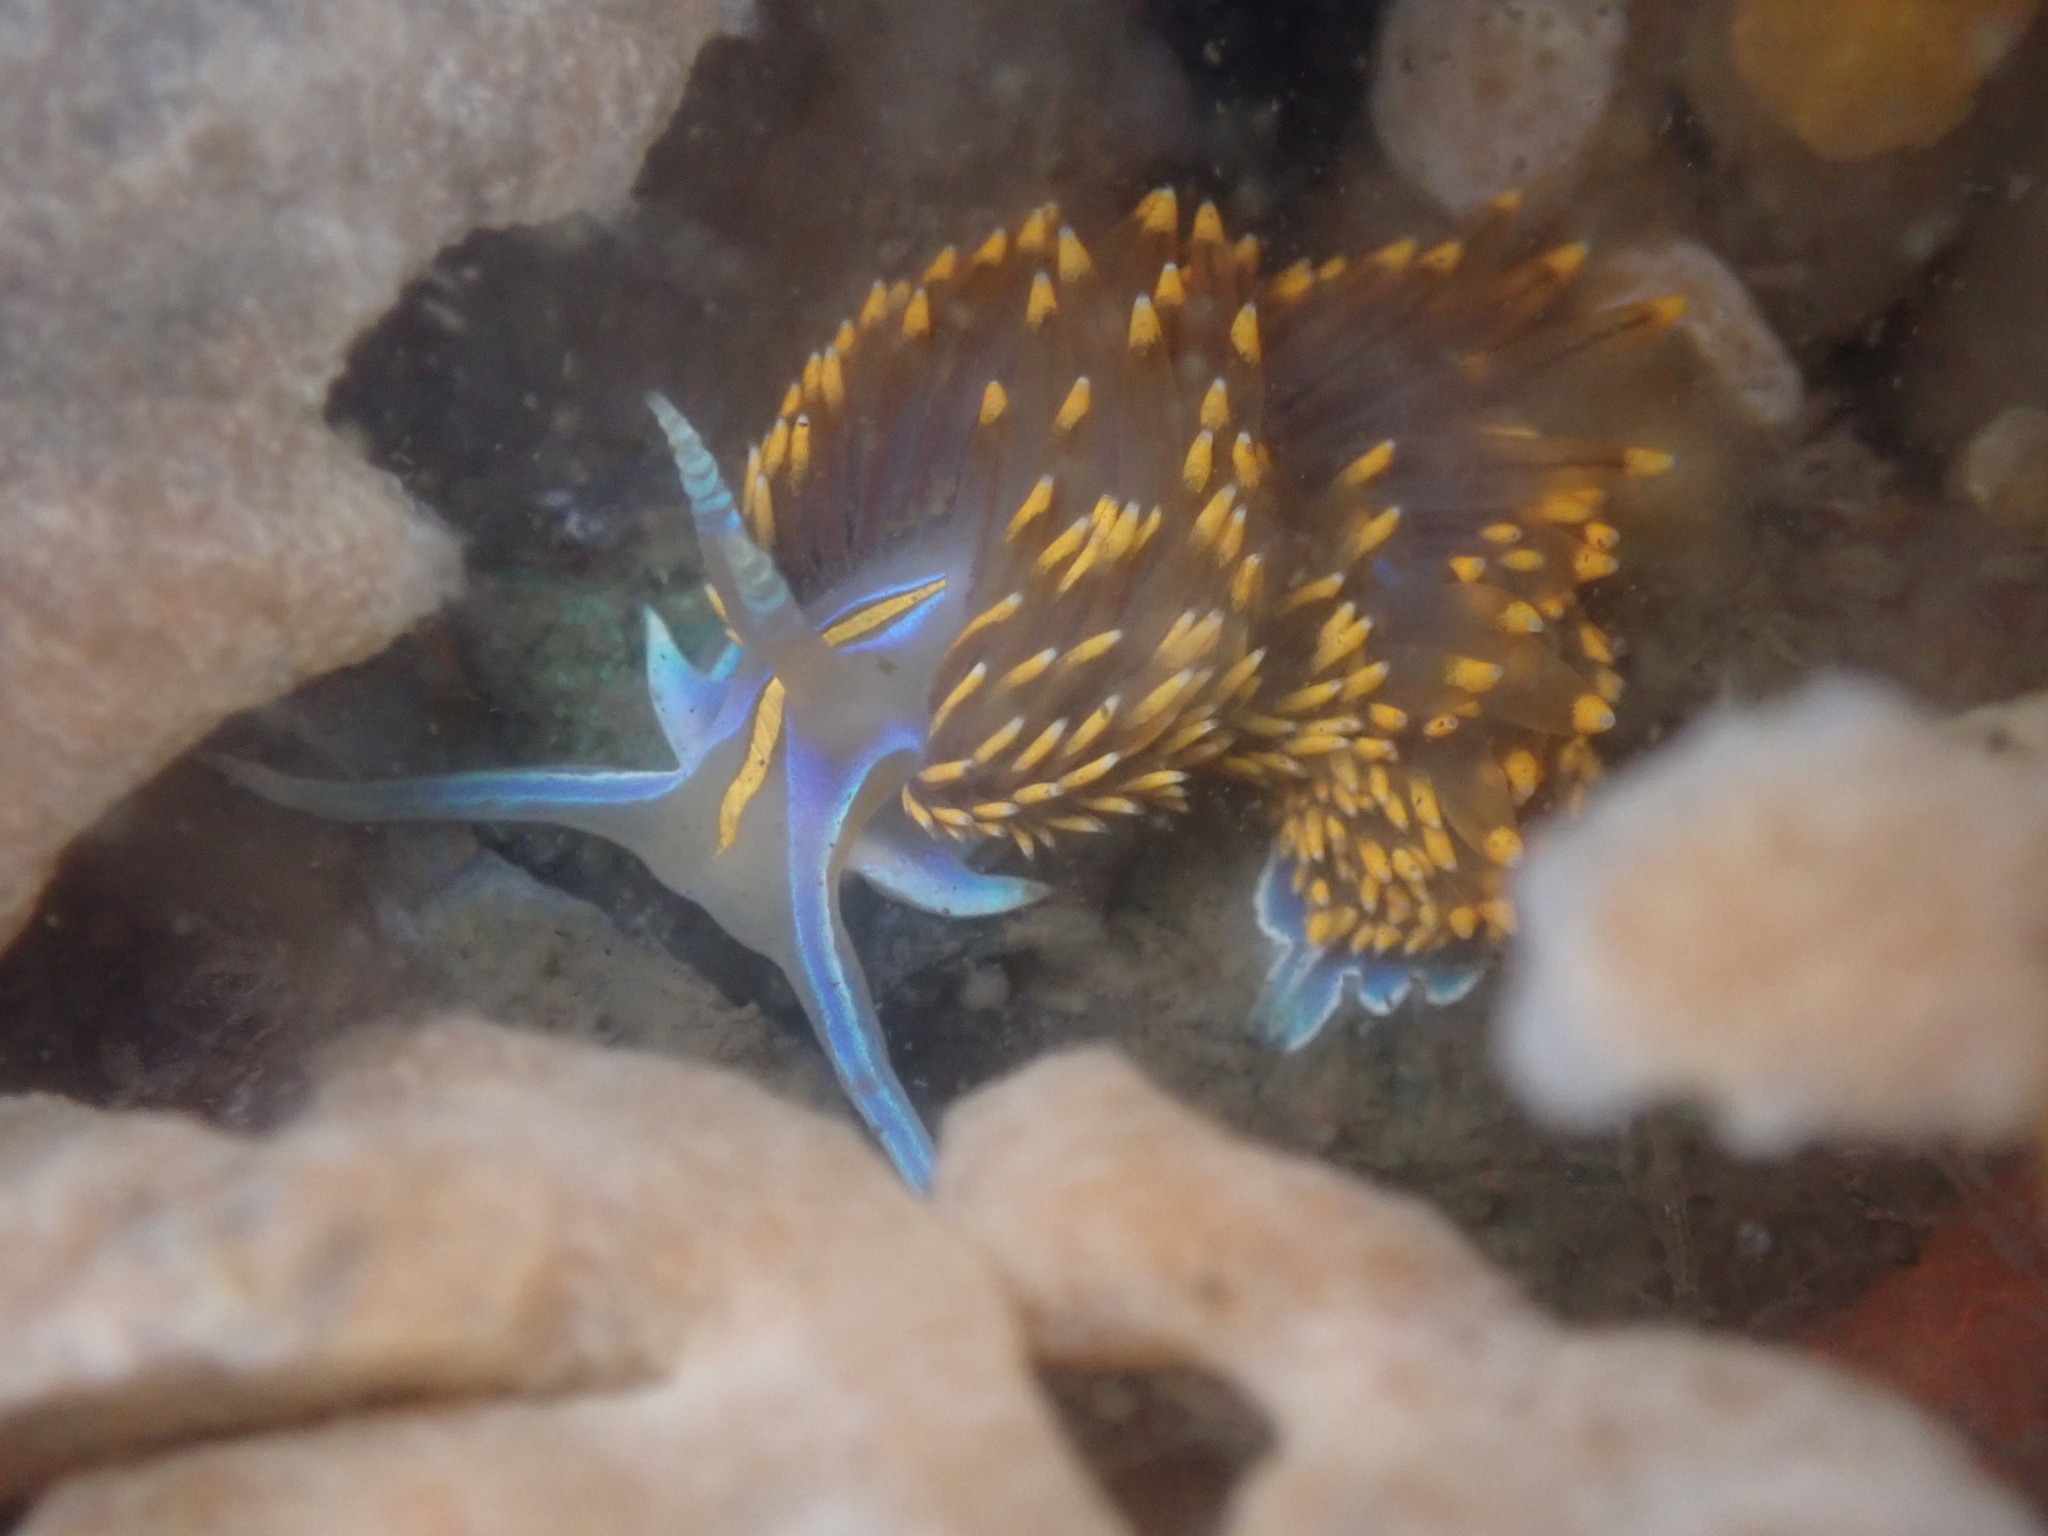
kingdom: Animalia
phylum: Mollusca
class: Gastropoda
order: Nudibranchia
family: Myrrhinidae
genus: Hermissenda
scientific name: Hermissenda opalescens
